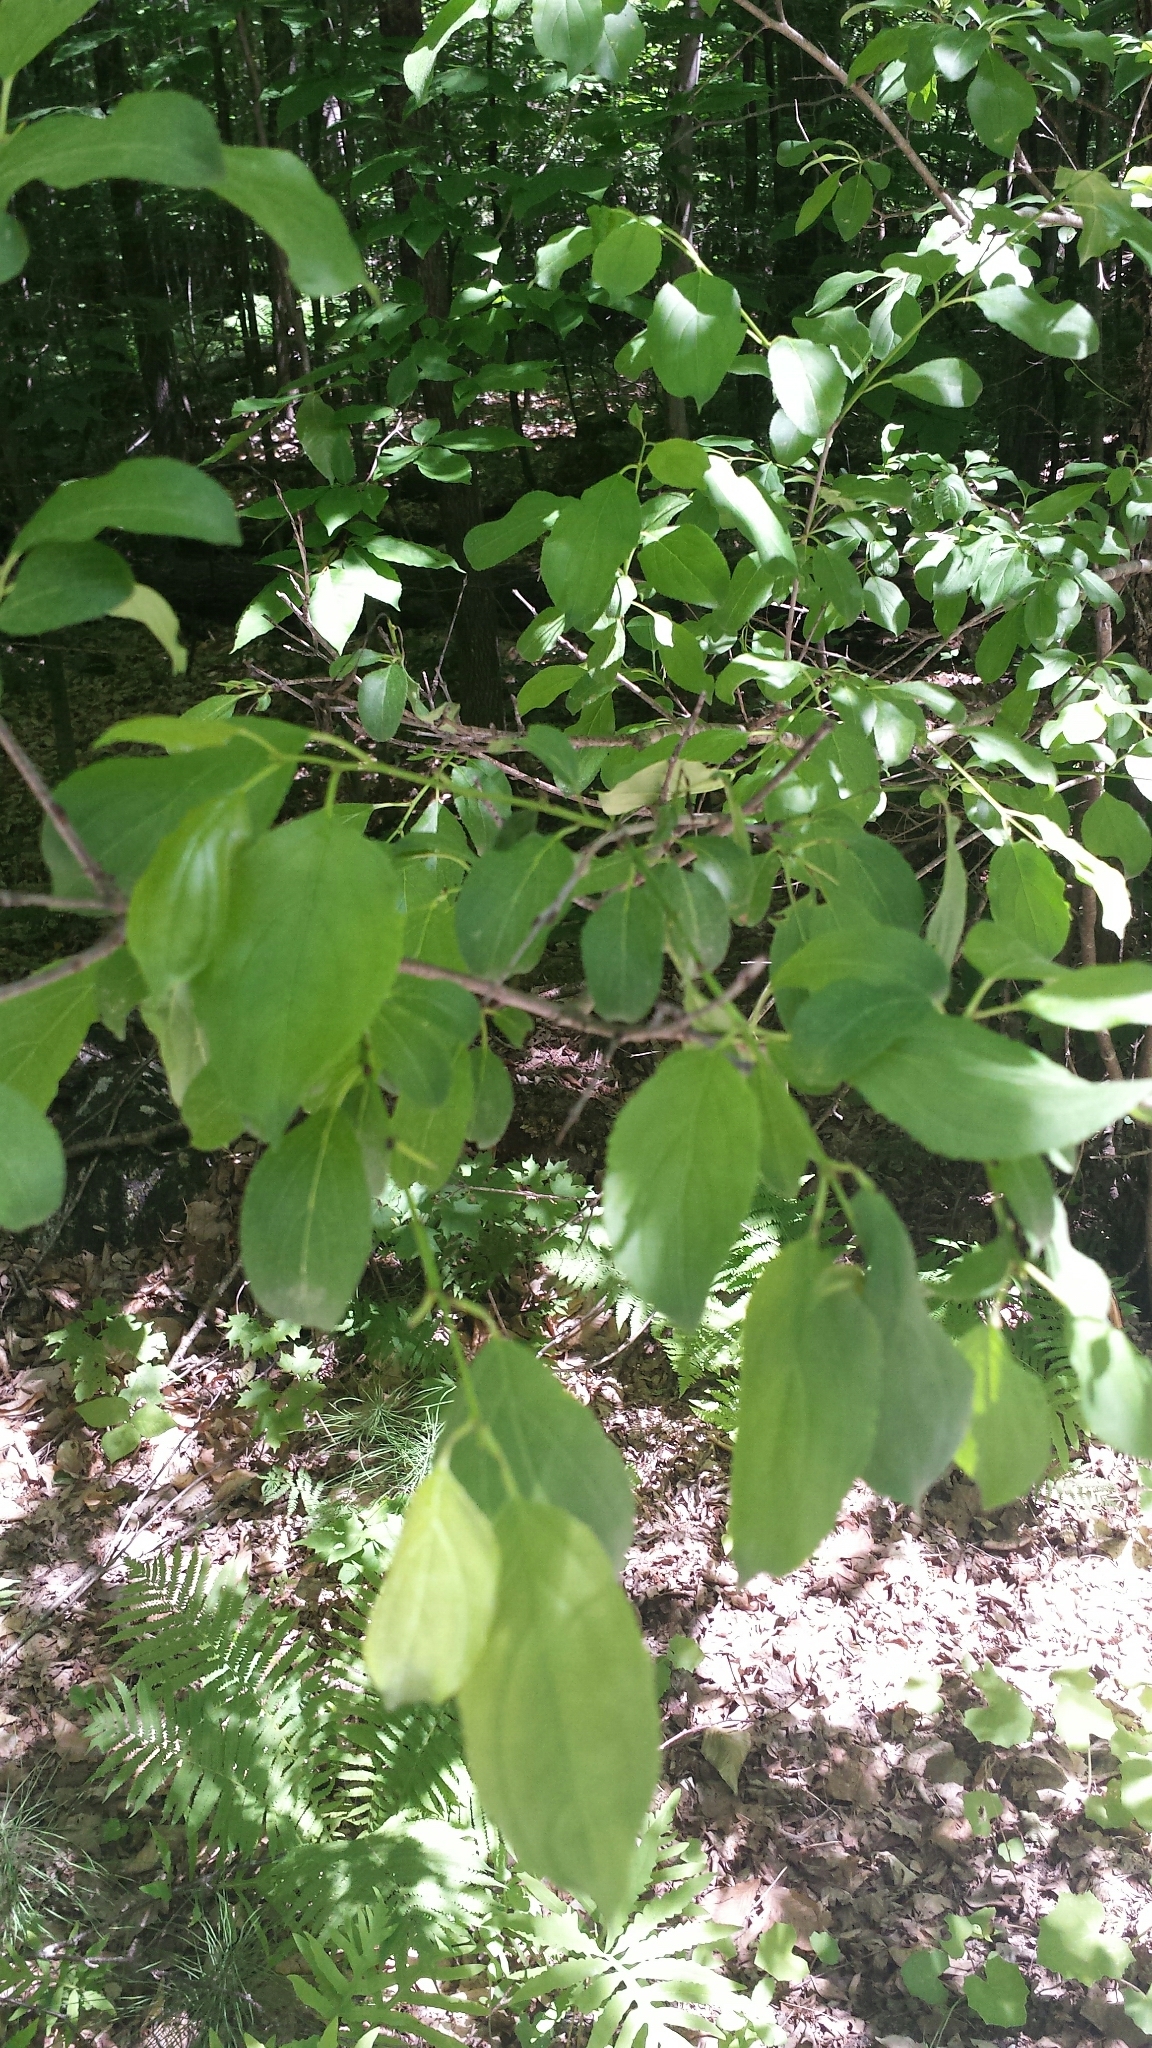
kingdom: Plantae
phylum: Tracheophyta
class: Magnoliopsida
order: Rosales
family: Rhamnaceae
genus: Rhamnus
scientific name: Rhamnus cathartica
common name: Common buckthorn
